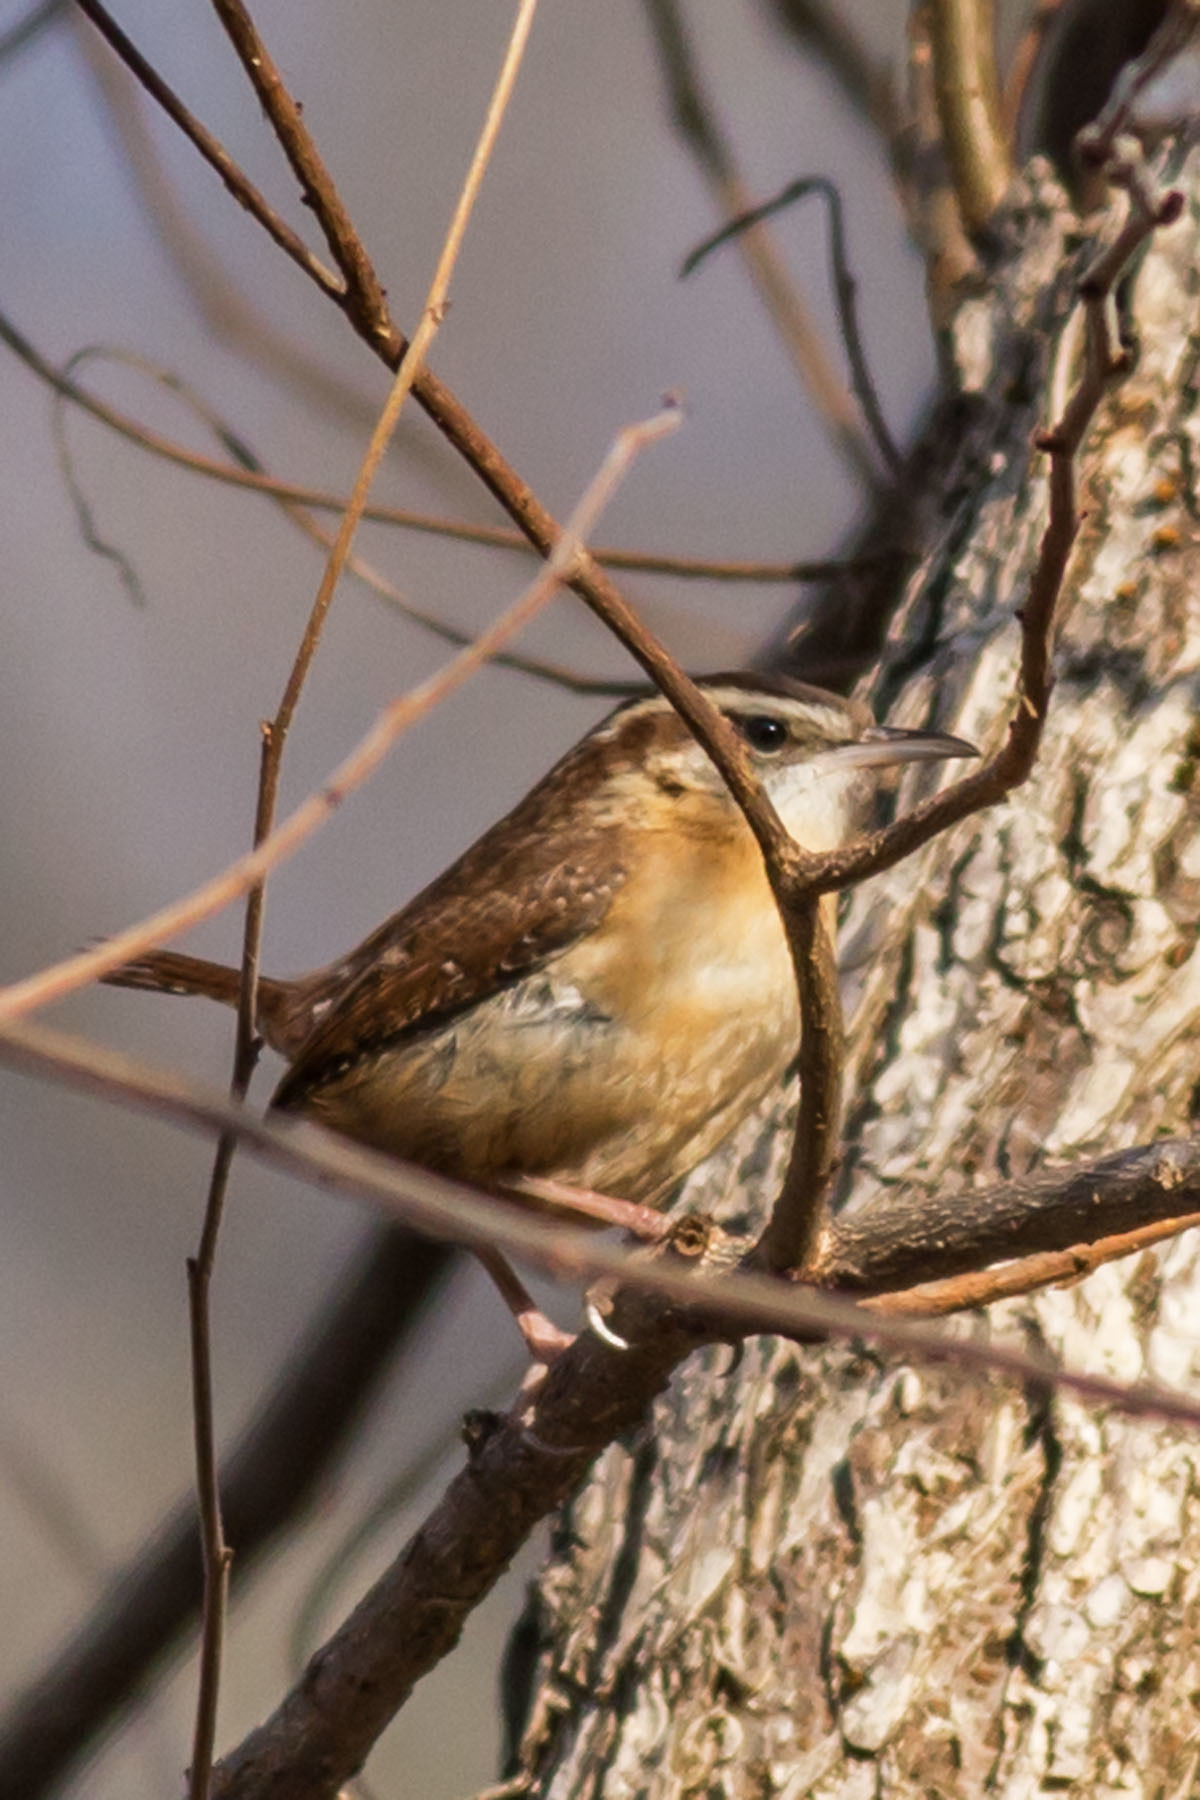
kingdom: Animalia
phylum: Chordata
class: Aves
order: Passeriformes
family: Troglodytidae
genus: Thryothorus
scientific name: Thryothorus ludovicianus
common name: Carolina wren
